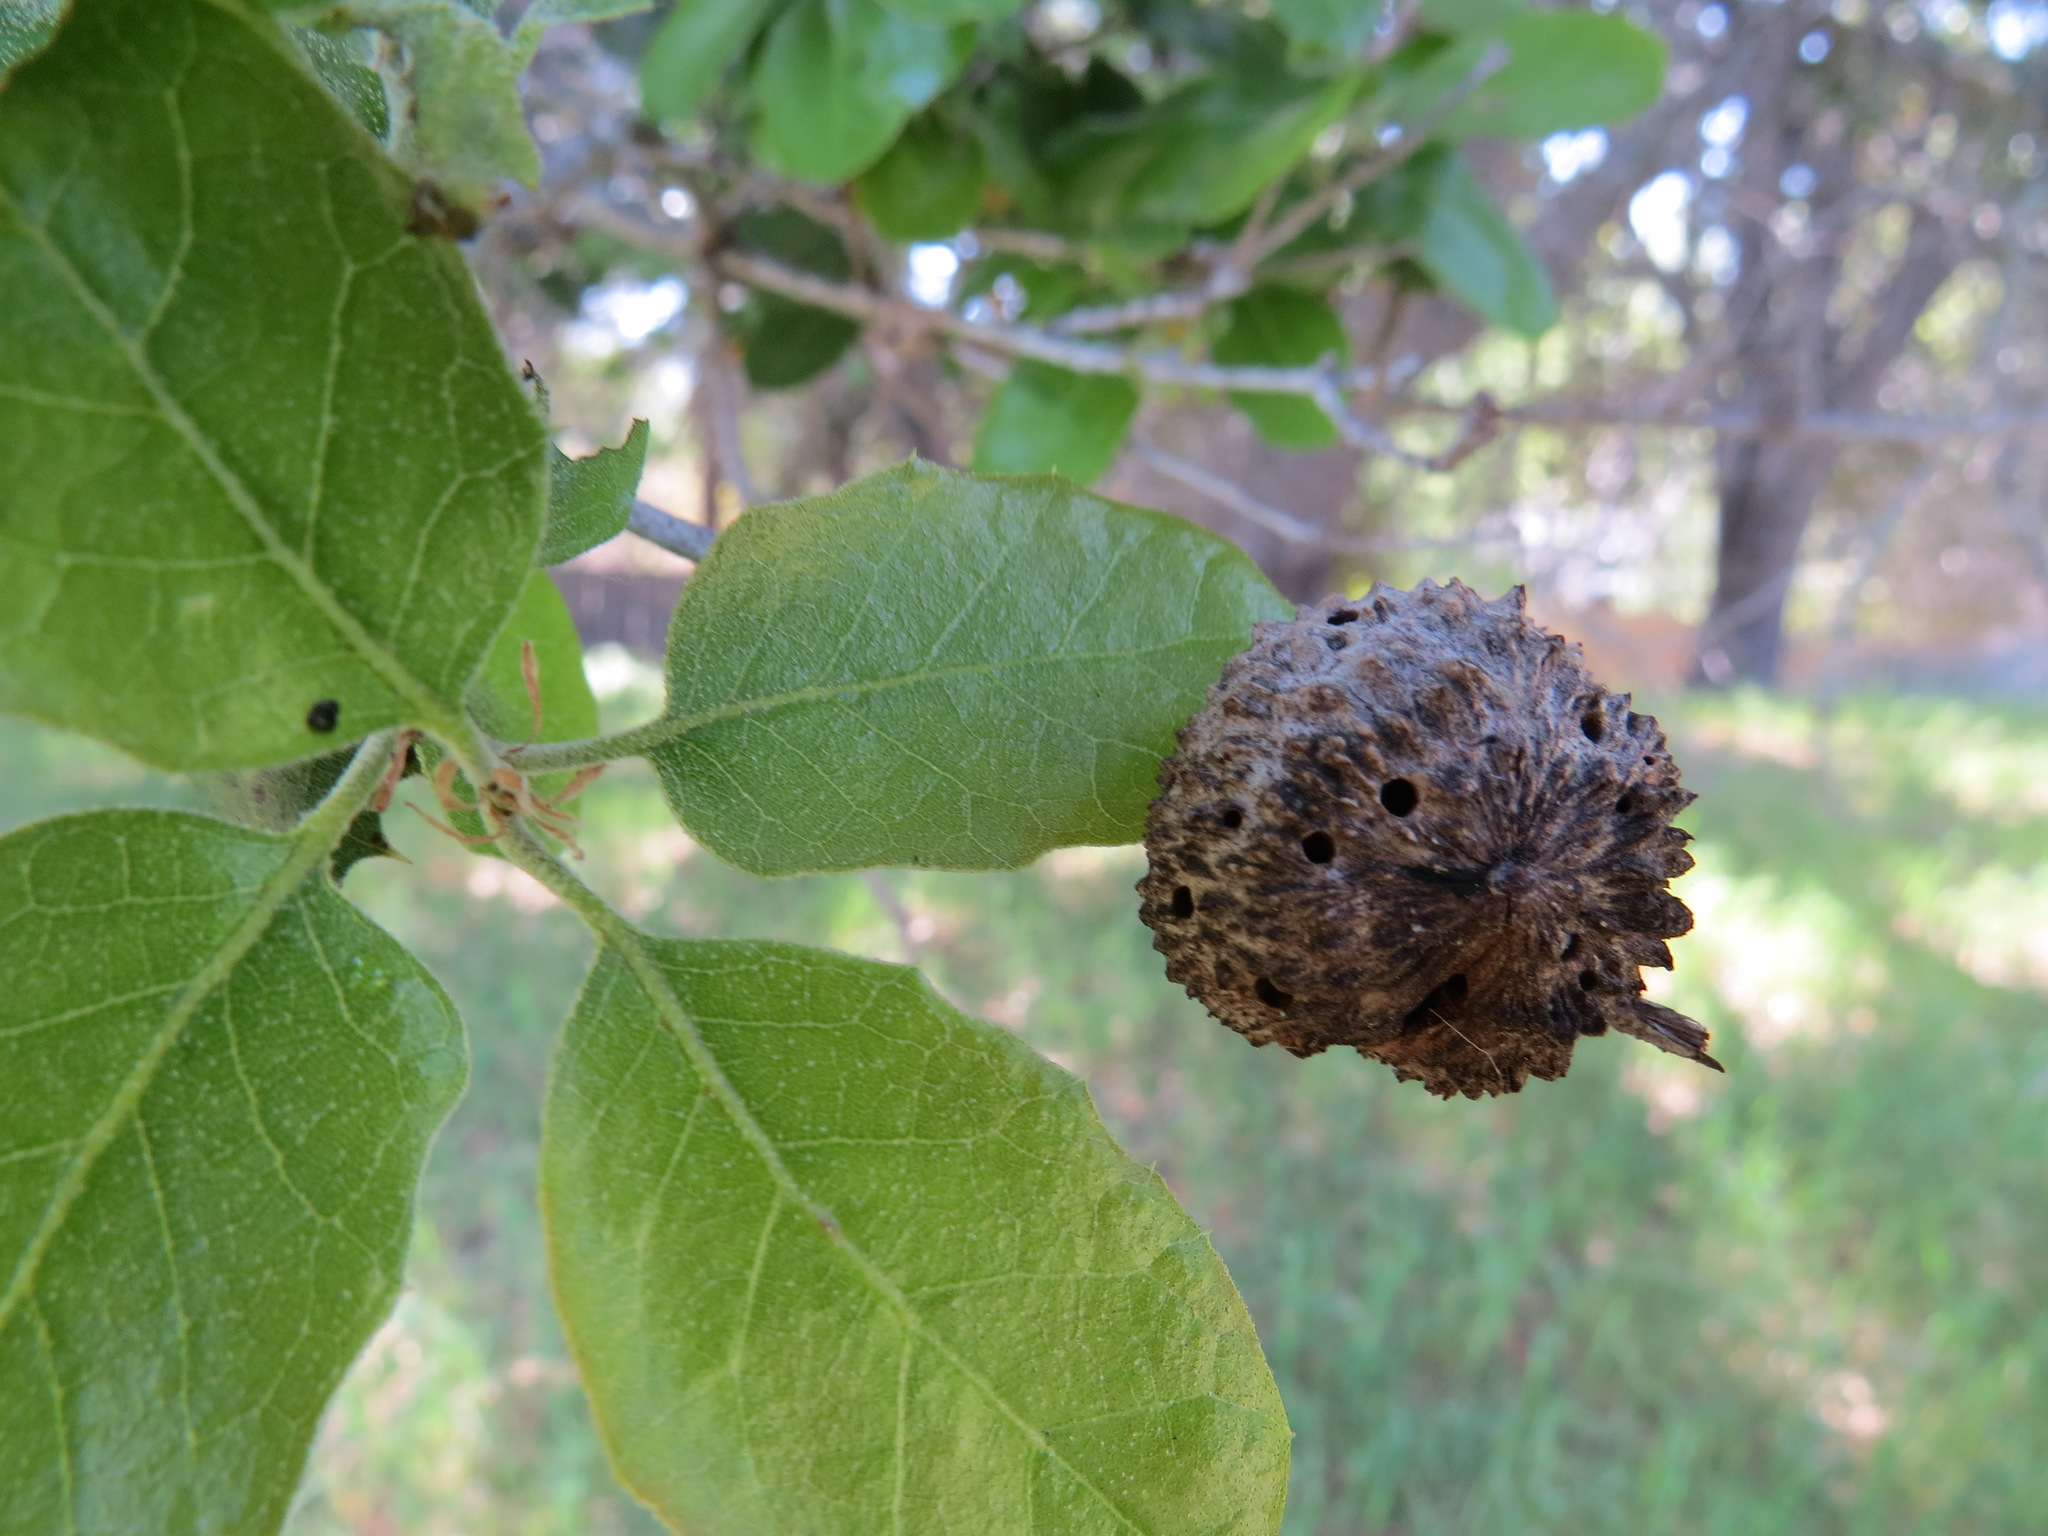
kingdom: Animalia
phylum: Arthropoda
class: Insecta
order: Hymenoptera
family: Cynipidae
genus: Amphibolips
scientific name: Amphibolips quercuspomiformis
